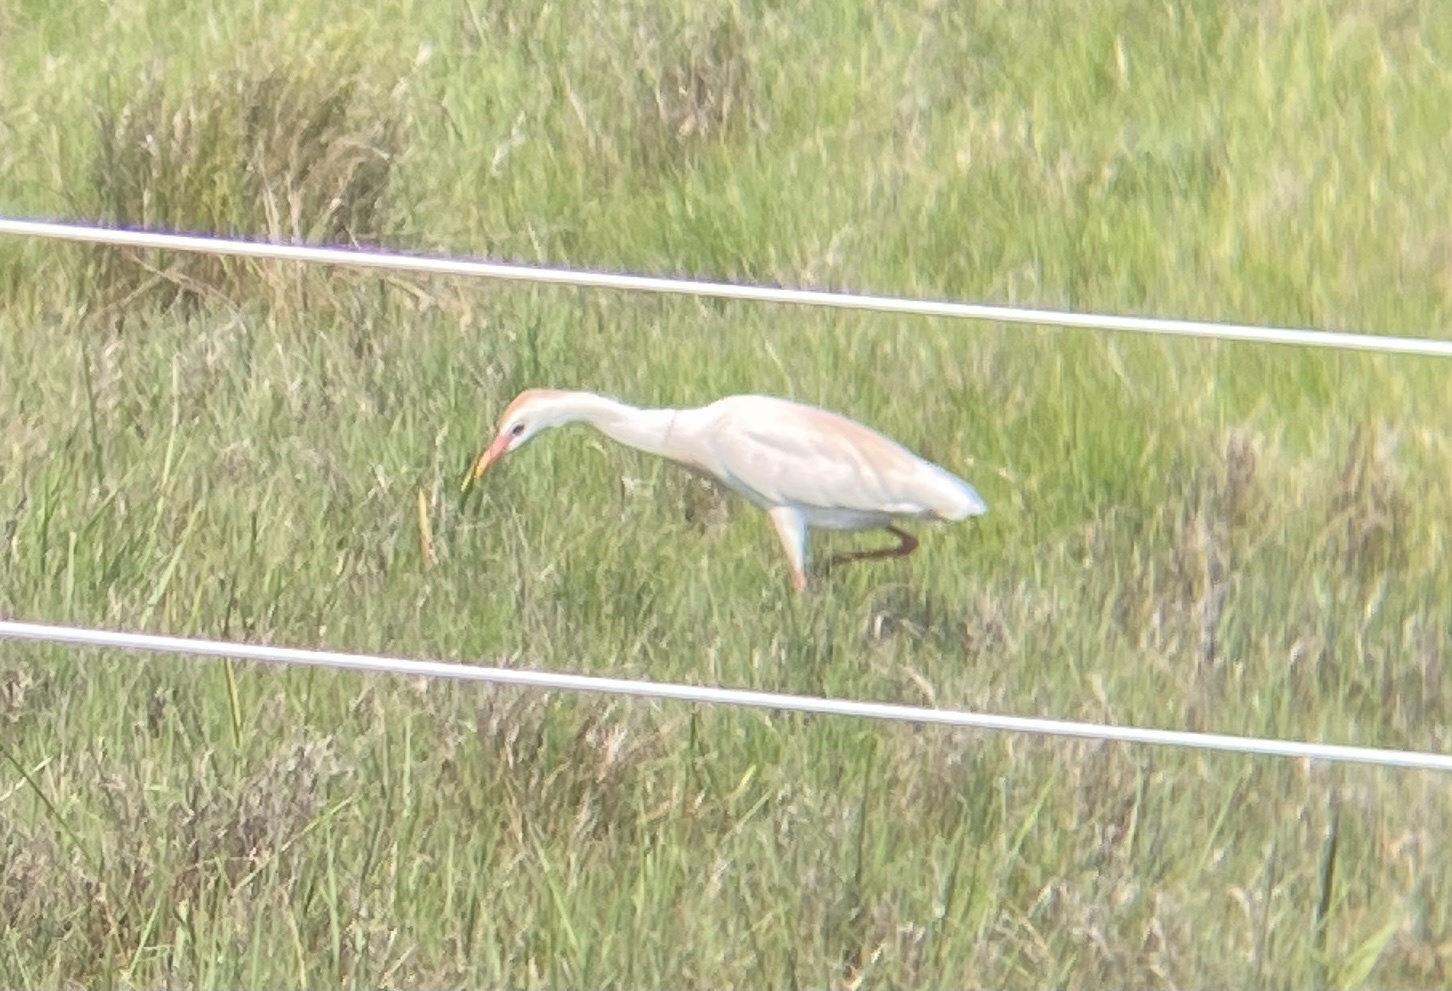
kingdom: Animalia
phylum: Chordata
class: Aves
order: Pelecaniformes
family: Ardeidae
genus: Bubulcus
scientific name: Bubulcus ibis
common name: Cattle egret
